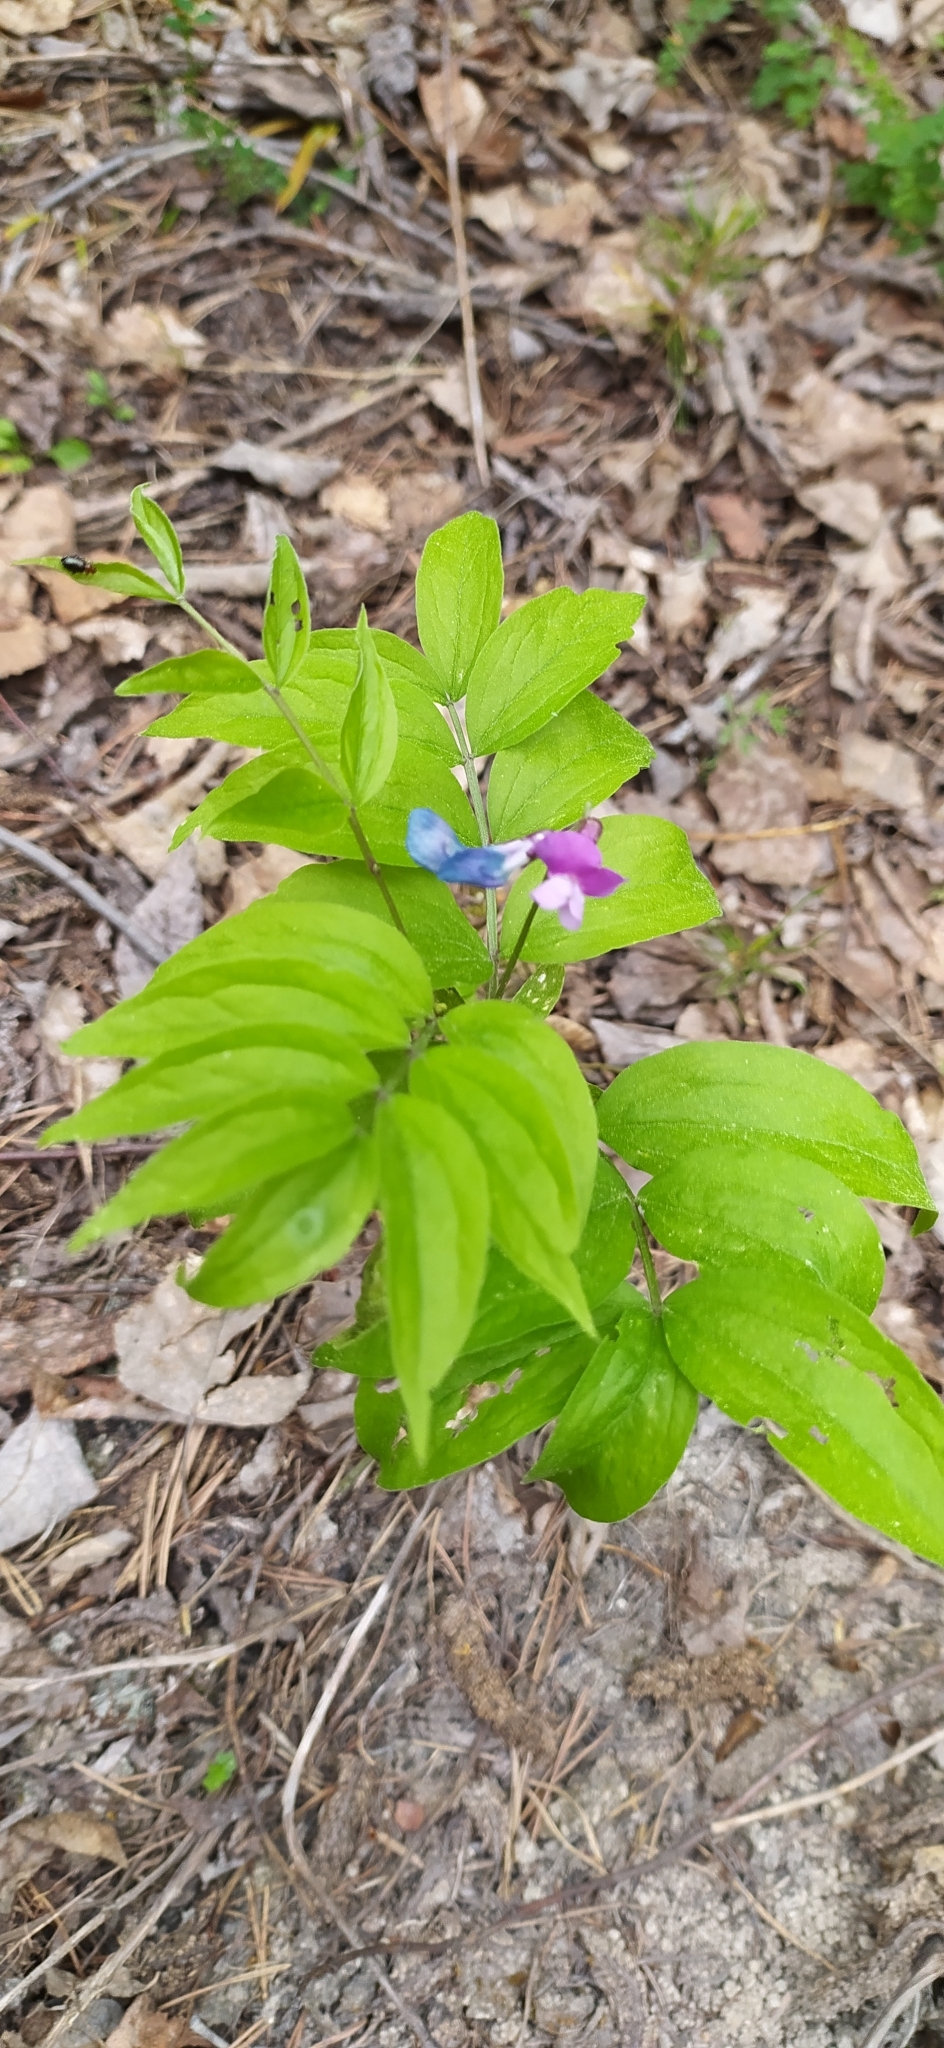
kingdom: Plantae
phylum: Tracheophyta
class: Magnoliopsida
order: Fabales
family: Fabaceae
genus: Lathyrus
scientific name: Lathyrus vernus
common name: Spring pea
